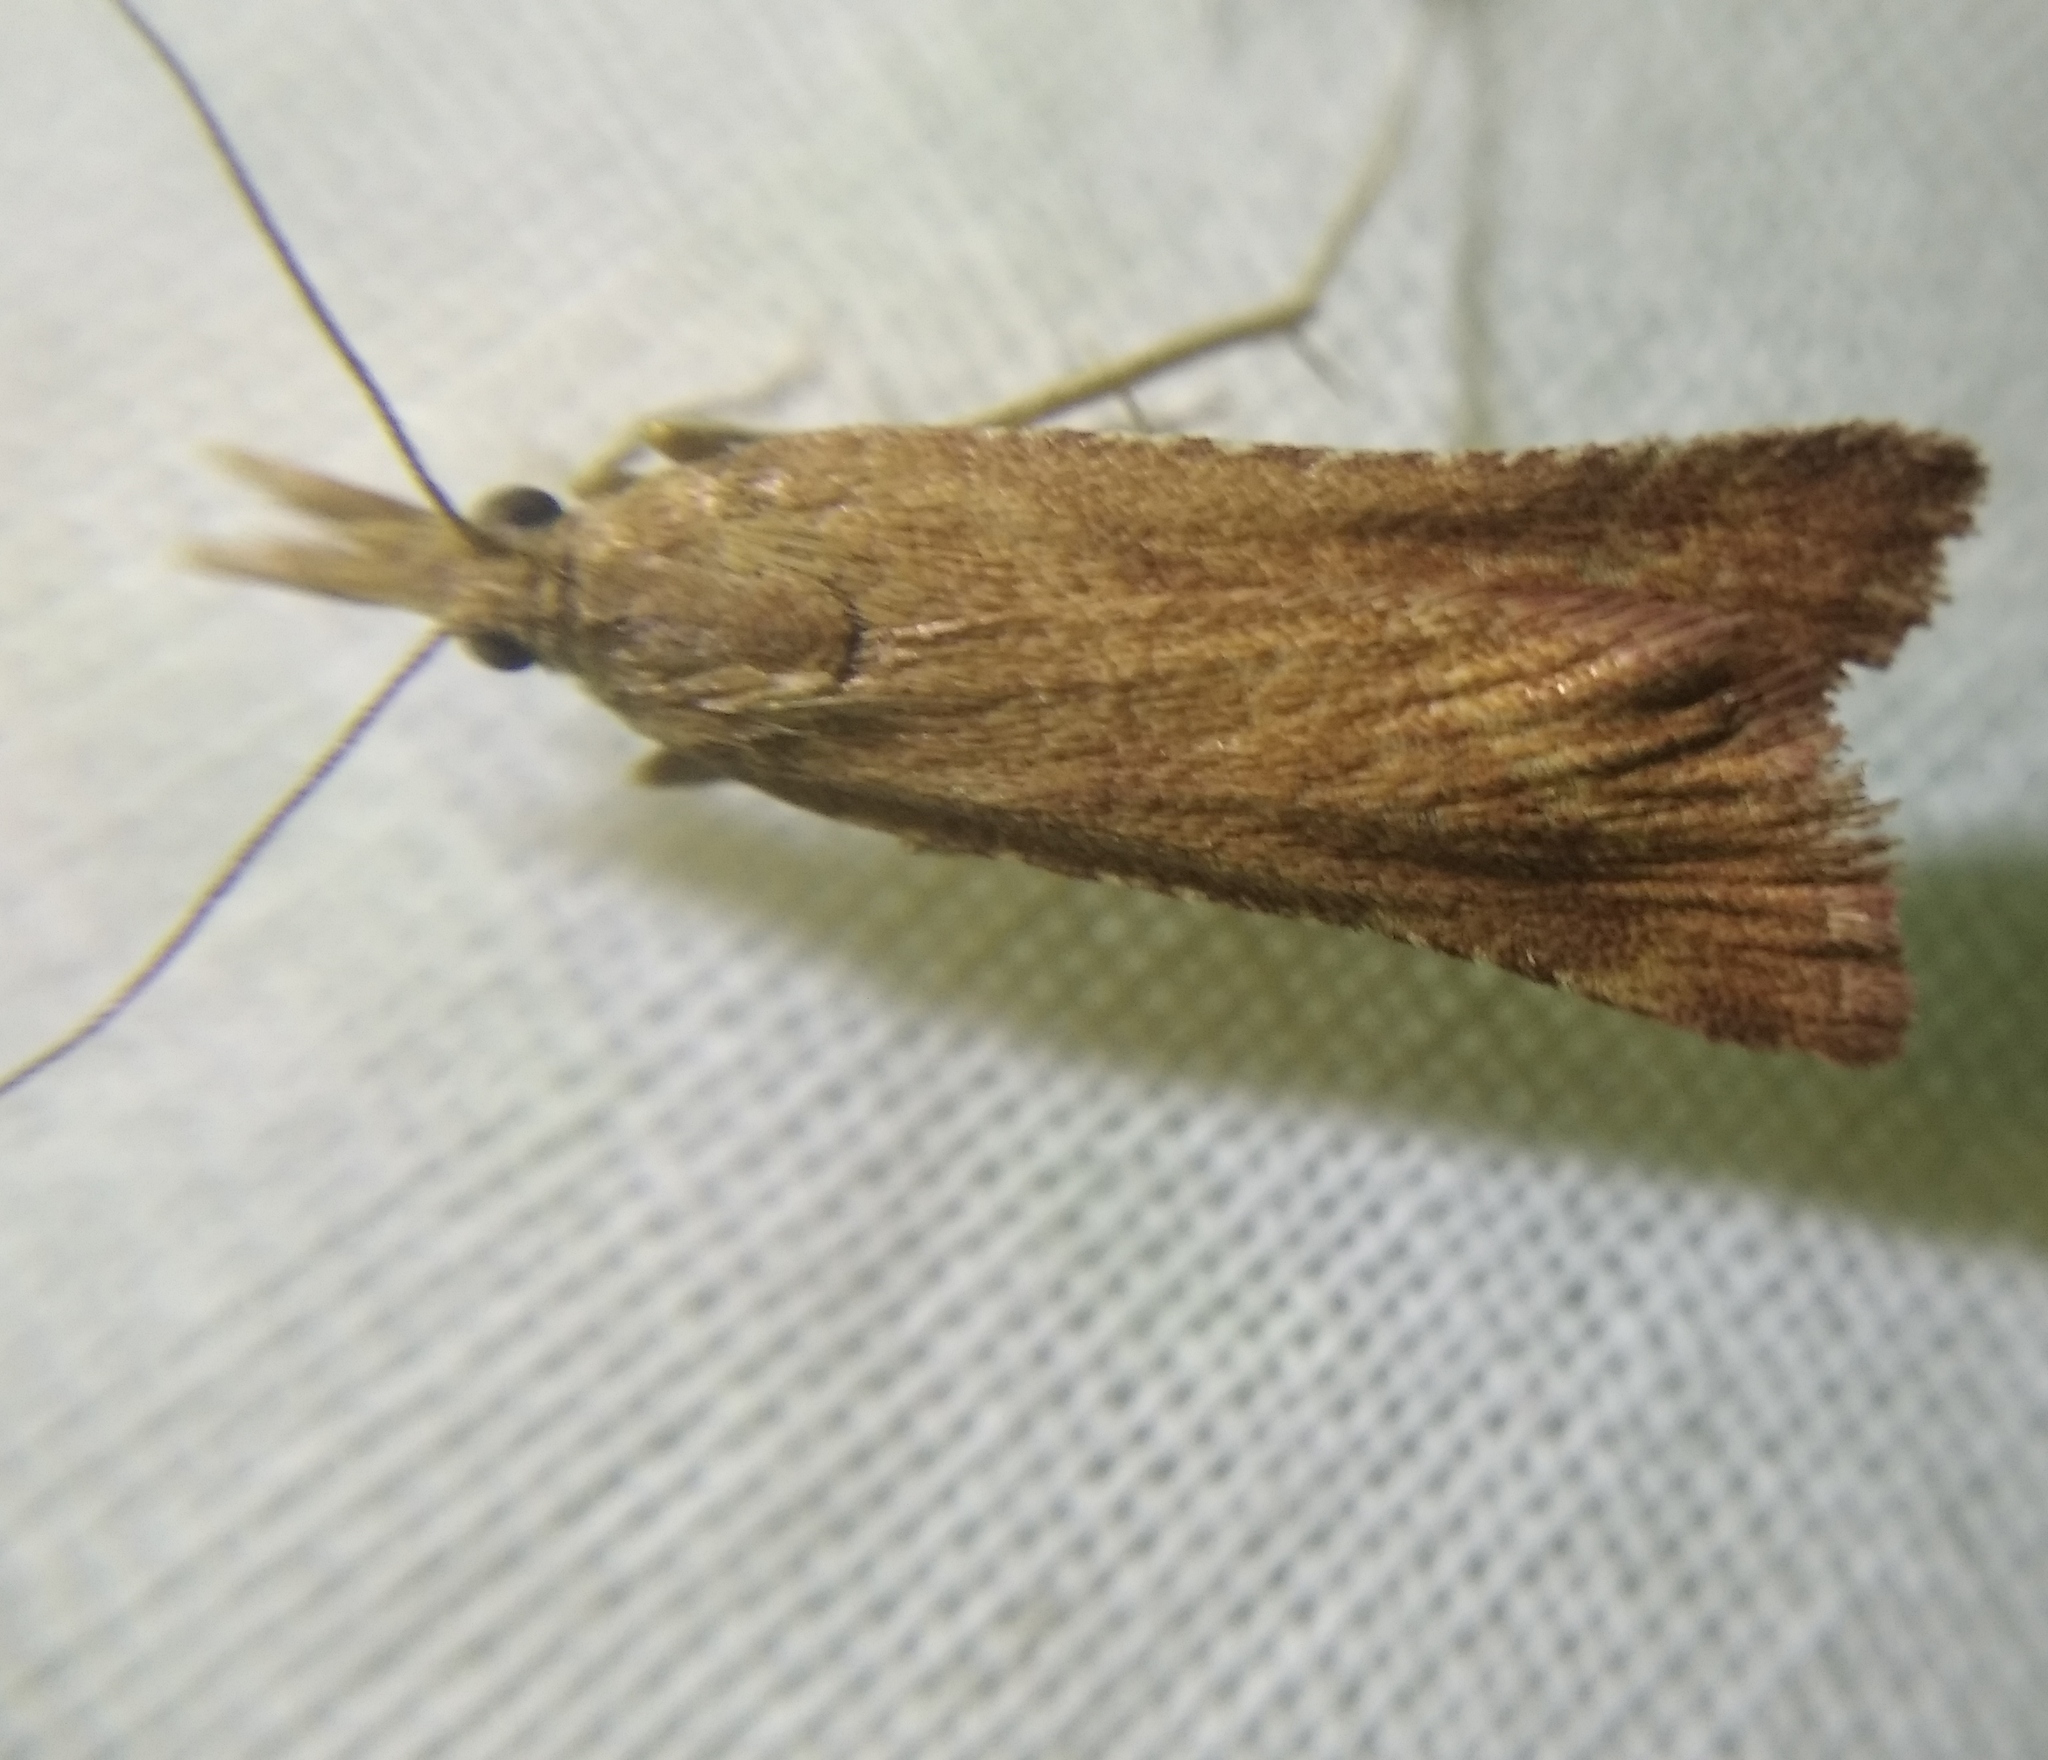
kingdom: Animalia
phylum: Arthropoda
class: Insecta
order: Lepidoptera
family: Pyralidae
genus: Synaphe
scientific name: Synaphe punctalis
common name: Long-legged tabby
